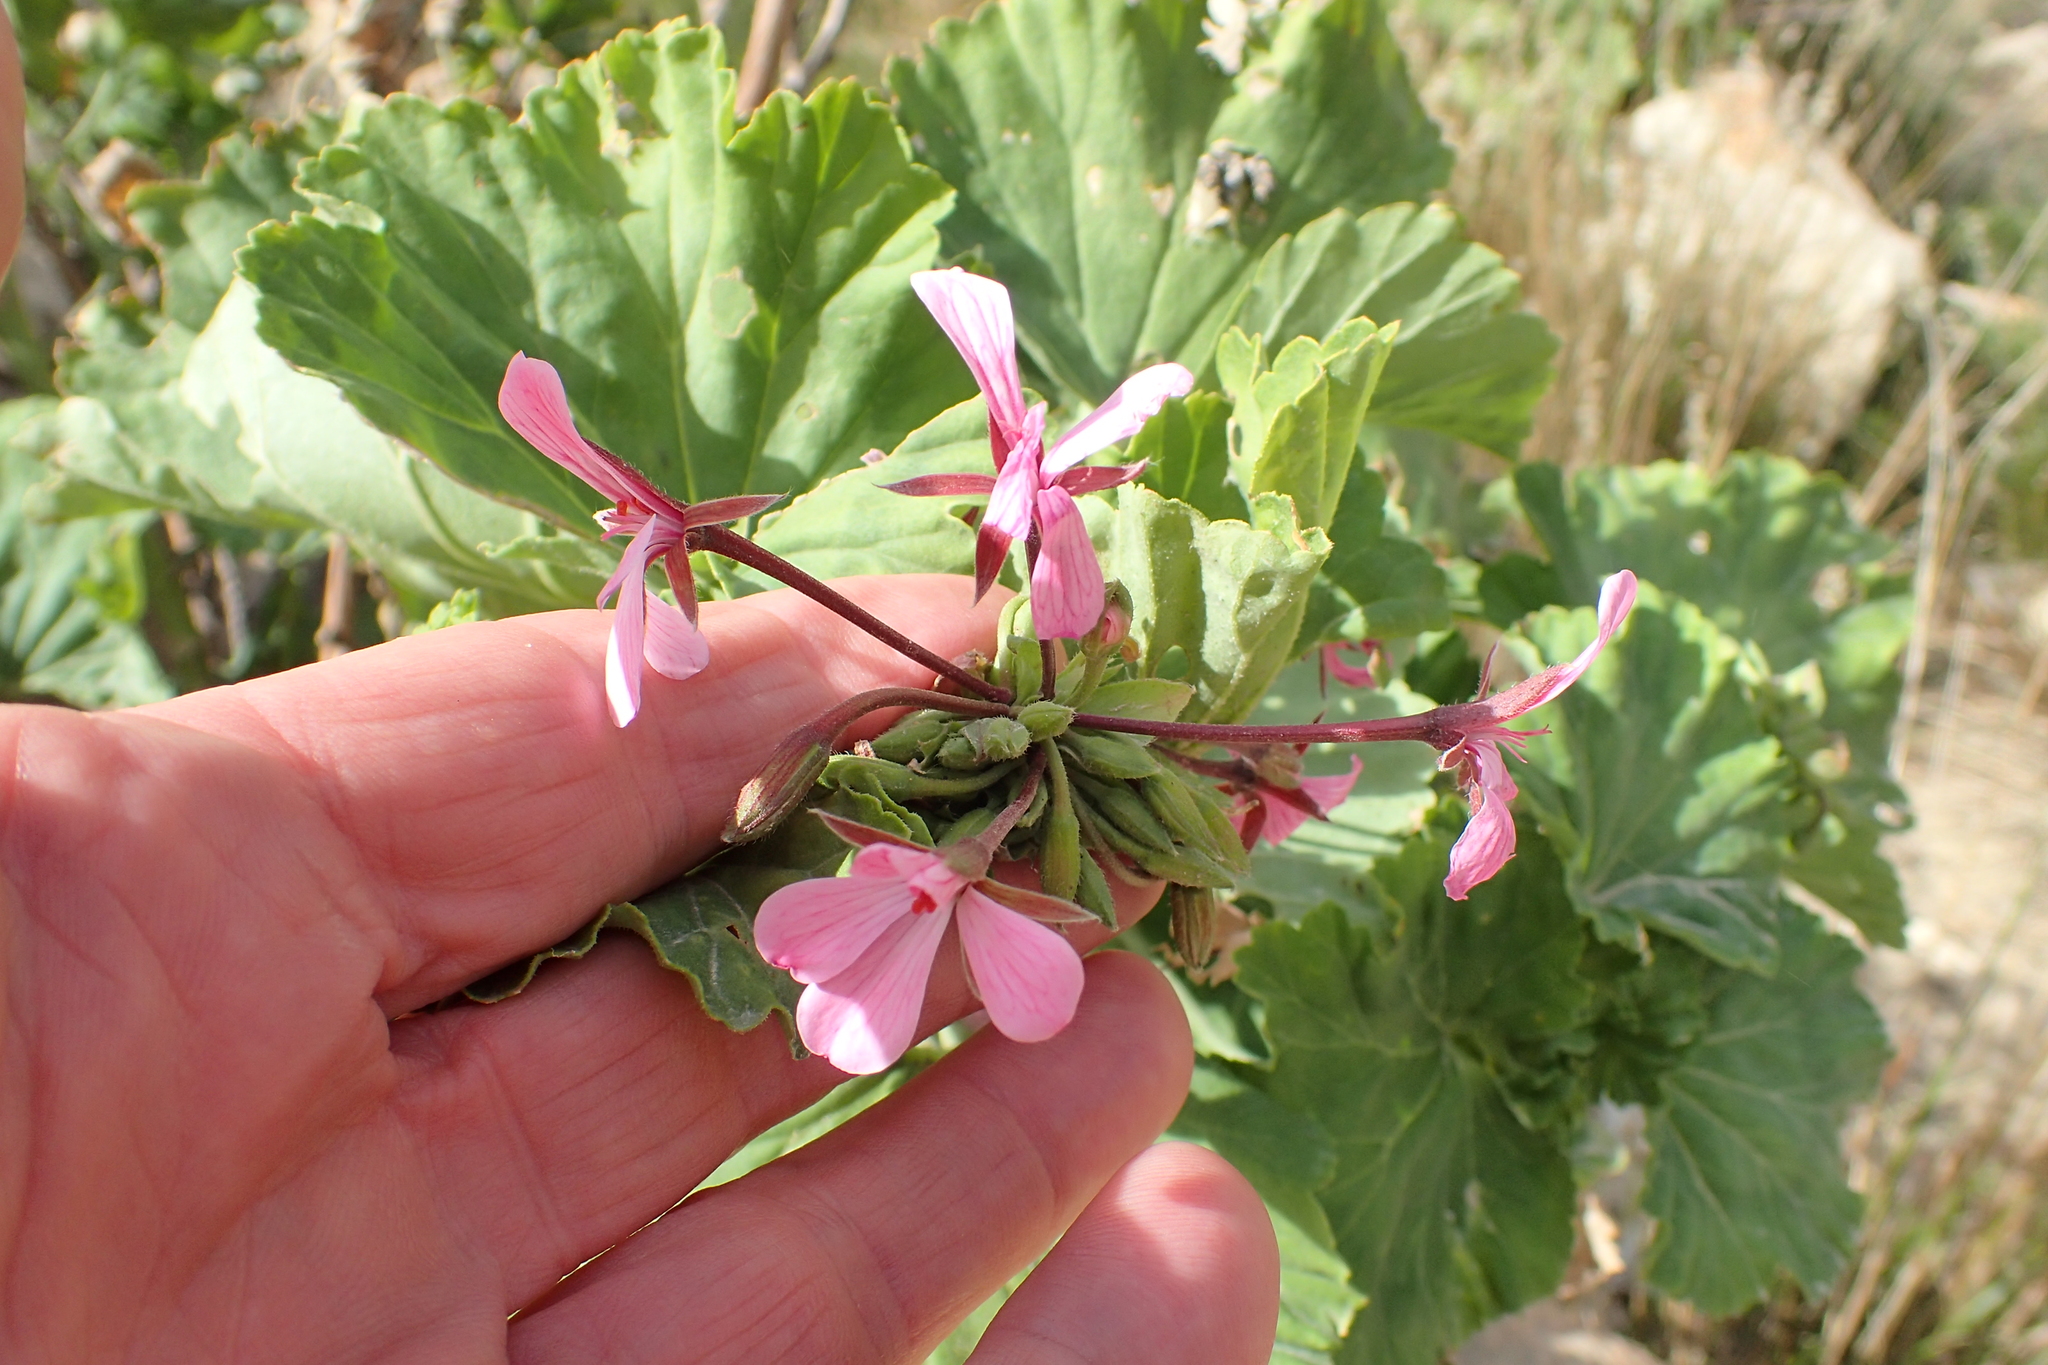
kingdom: Plantae
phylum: Tracheophyta
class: Magnoliopsida
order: Geraniales
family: Geraniaceae
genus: Pelargonium
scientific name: Pelargonium zonale
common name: Horseshoe geranium
